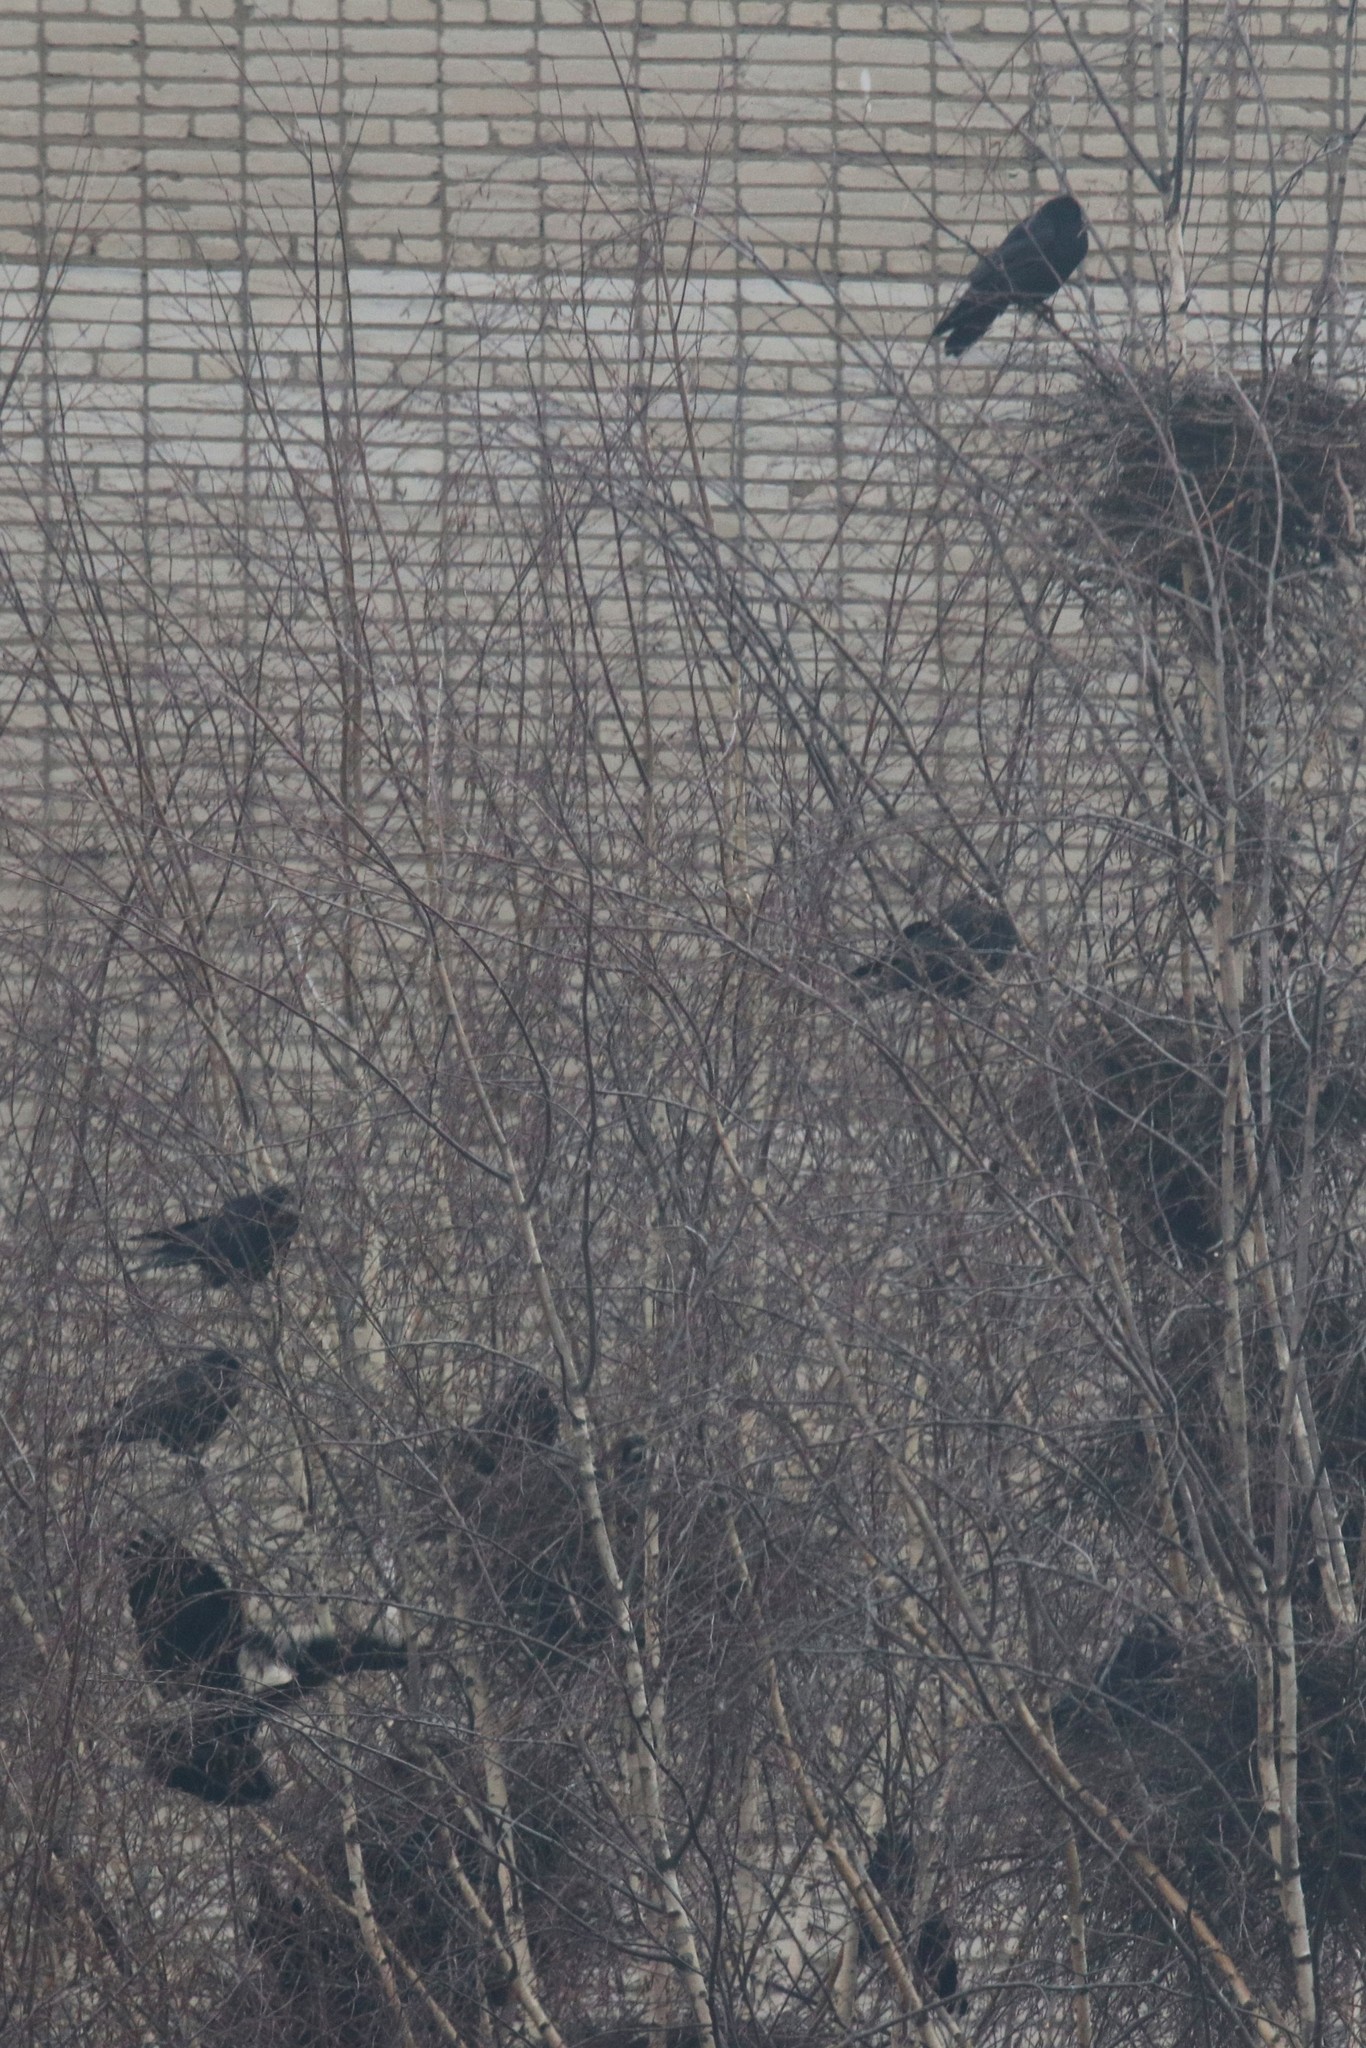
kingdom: Animalia
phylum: Chordata
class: Aves
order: Passeriformes
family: Corvidae
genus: Corvus
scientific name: Corvus frugilegus
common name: Rook
